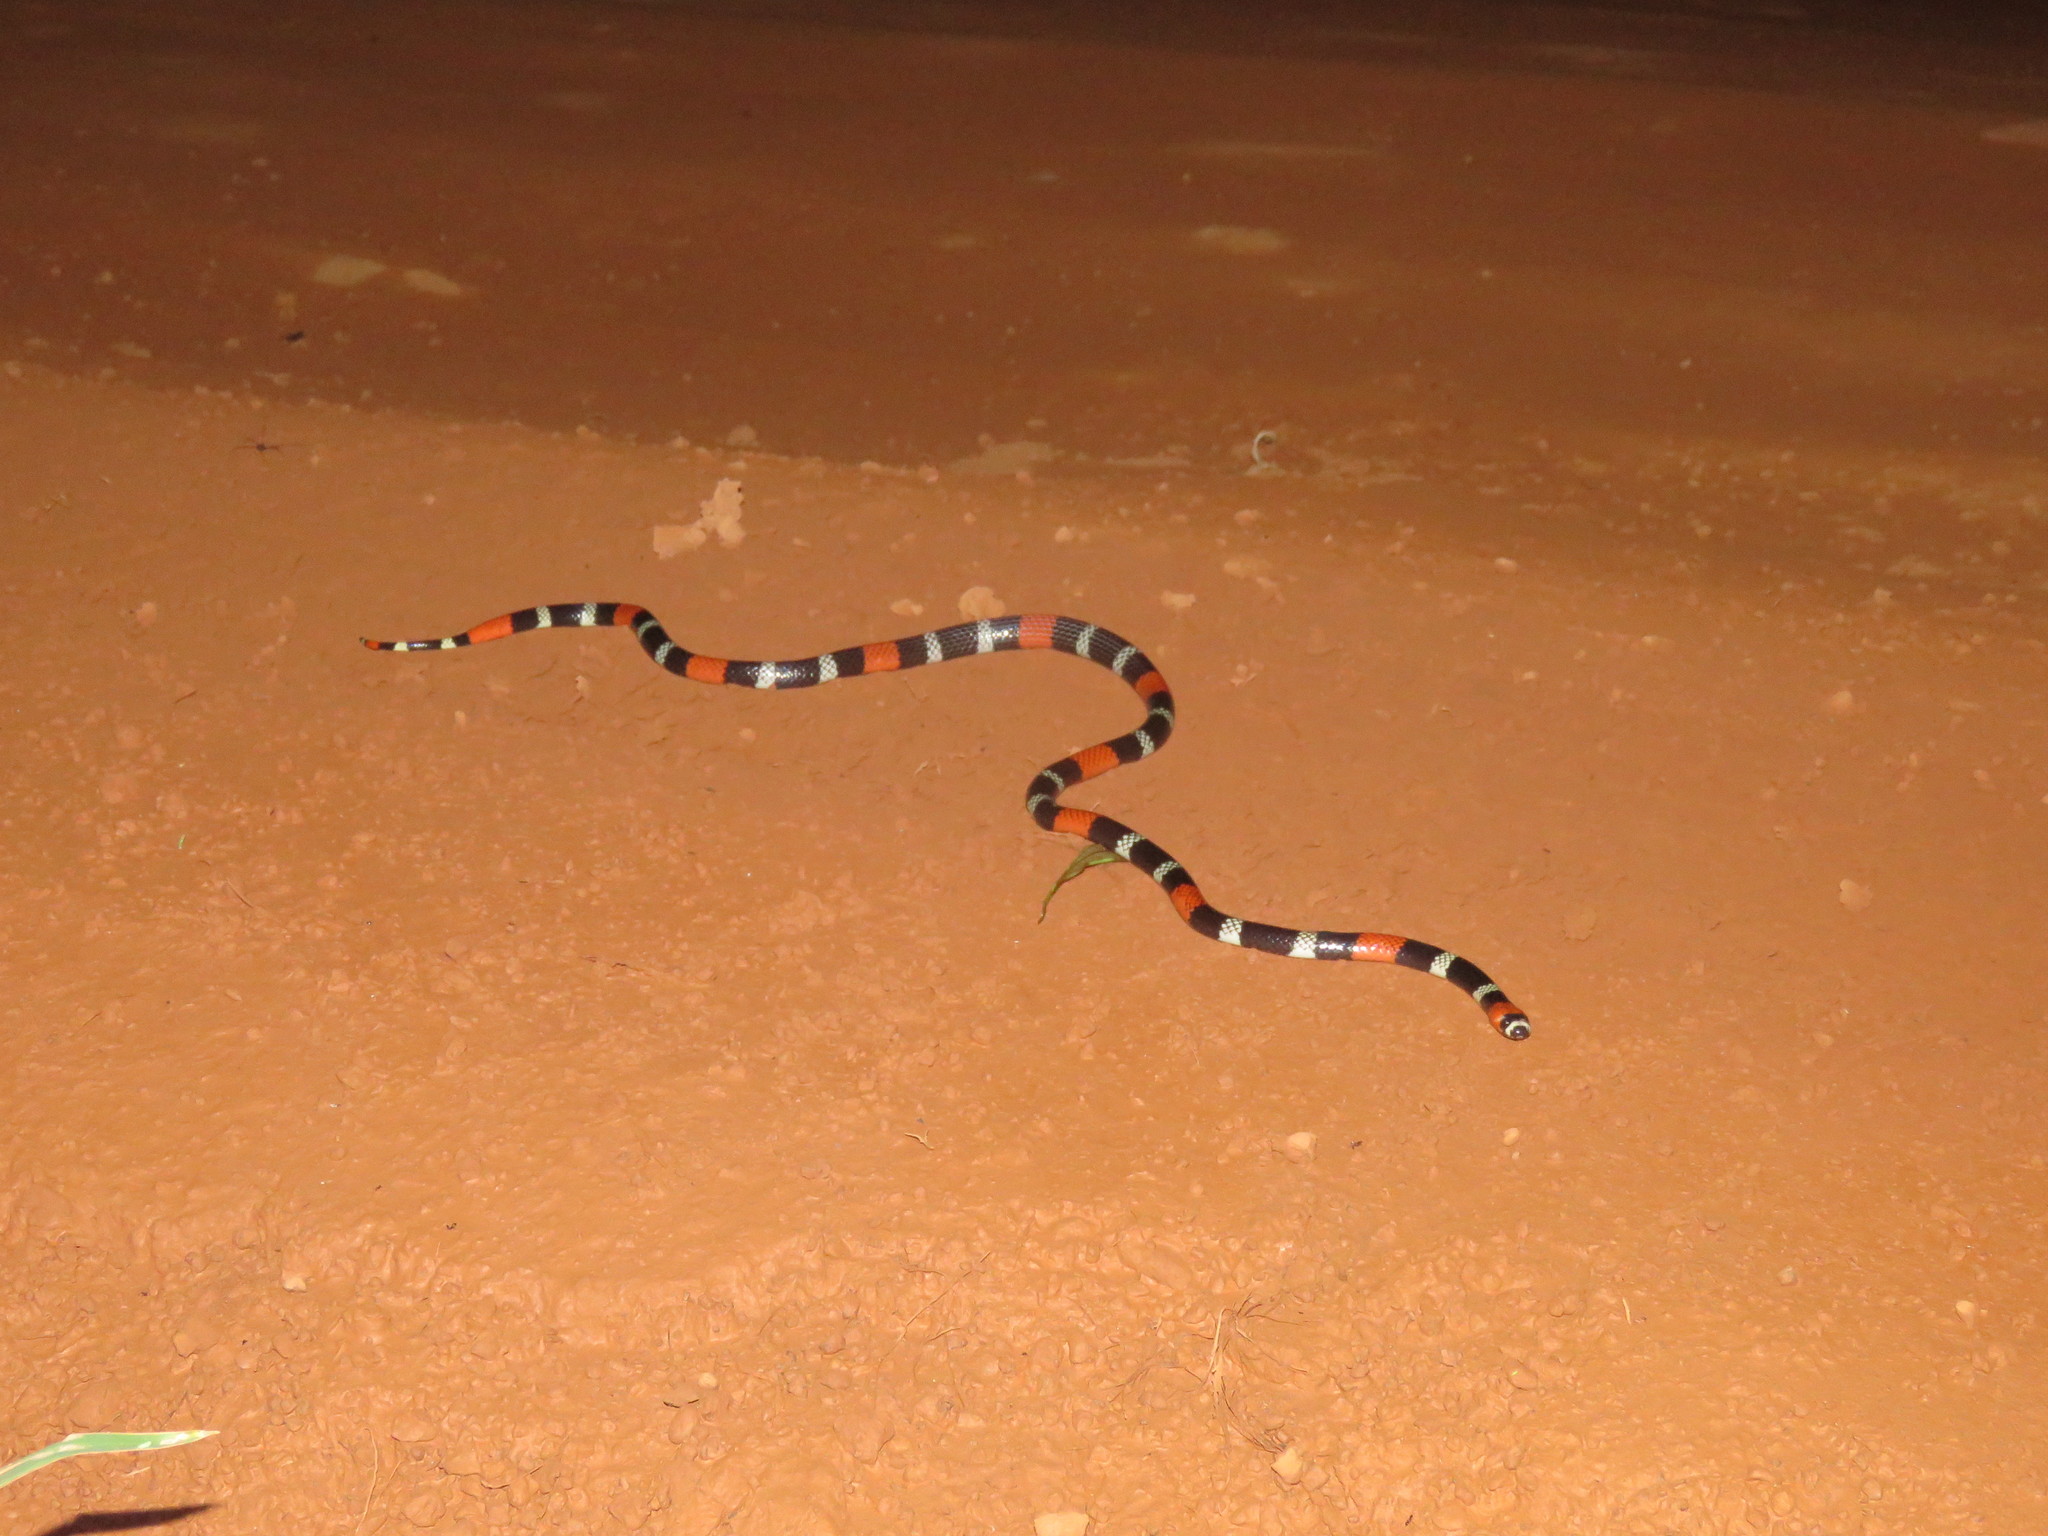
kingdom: Animalia
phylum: Chordata
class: Squamata
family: Elapidae
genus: Micrurus
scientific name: Micrurus lemniscatus
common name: South american coral snake
